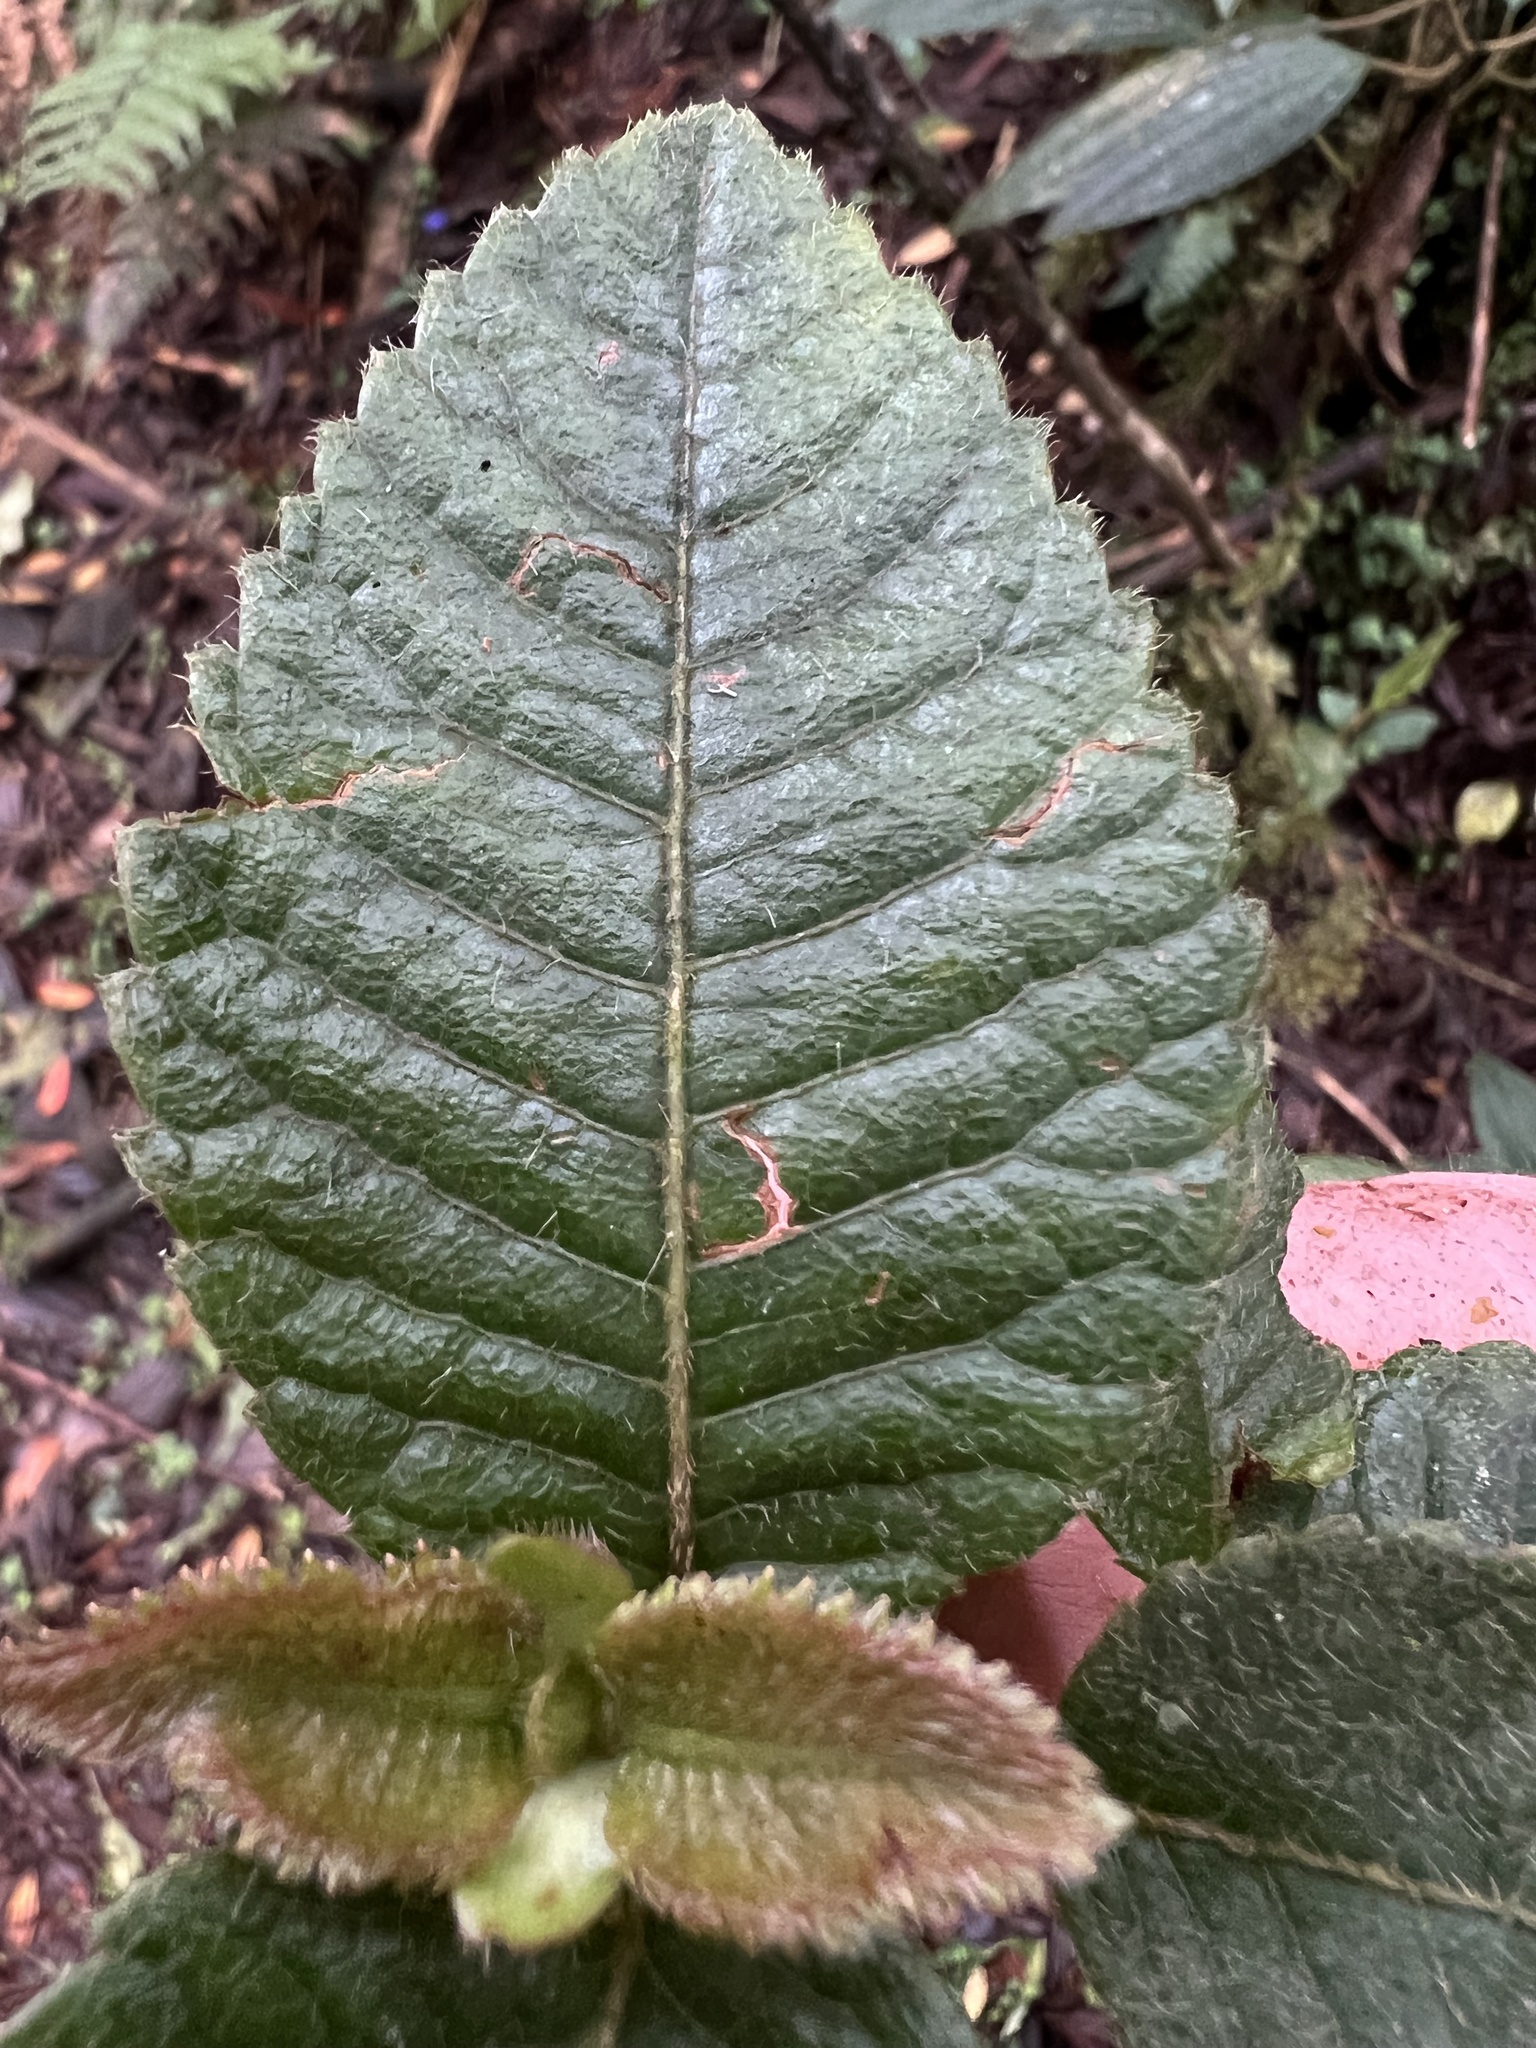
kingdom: Plantae
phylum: Tracheophyta
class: Magnoliopsida
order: Oxalidales
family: Cunoniaceae
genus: Weinmannia
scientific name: Weinmannia rollottii
